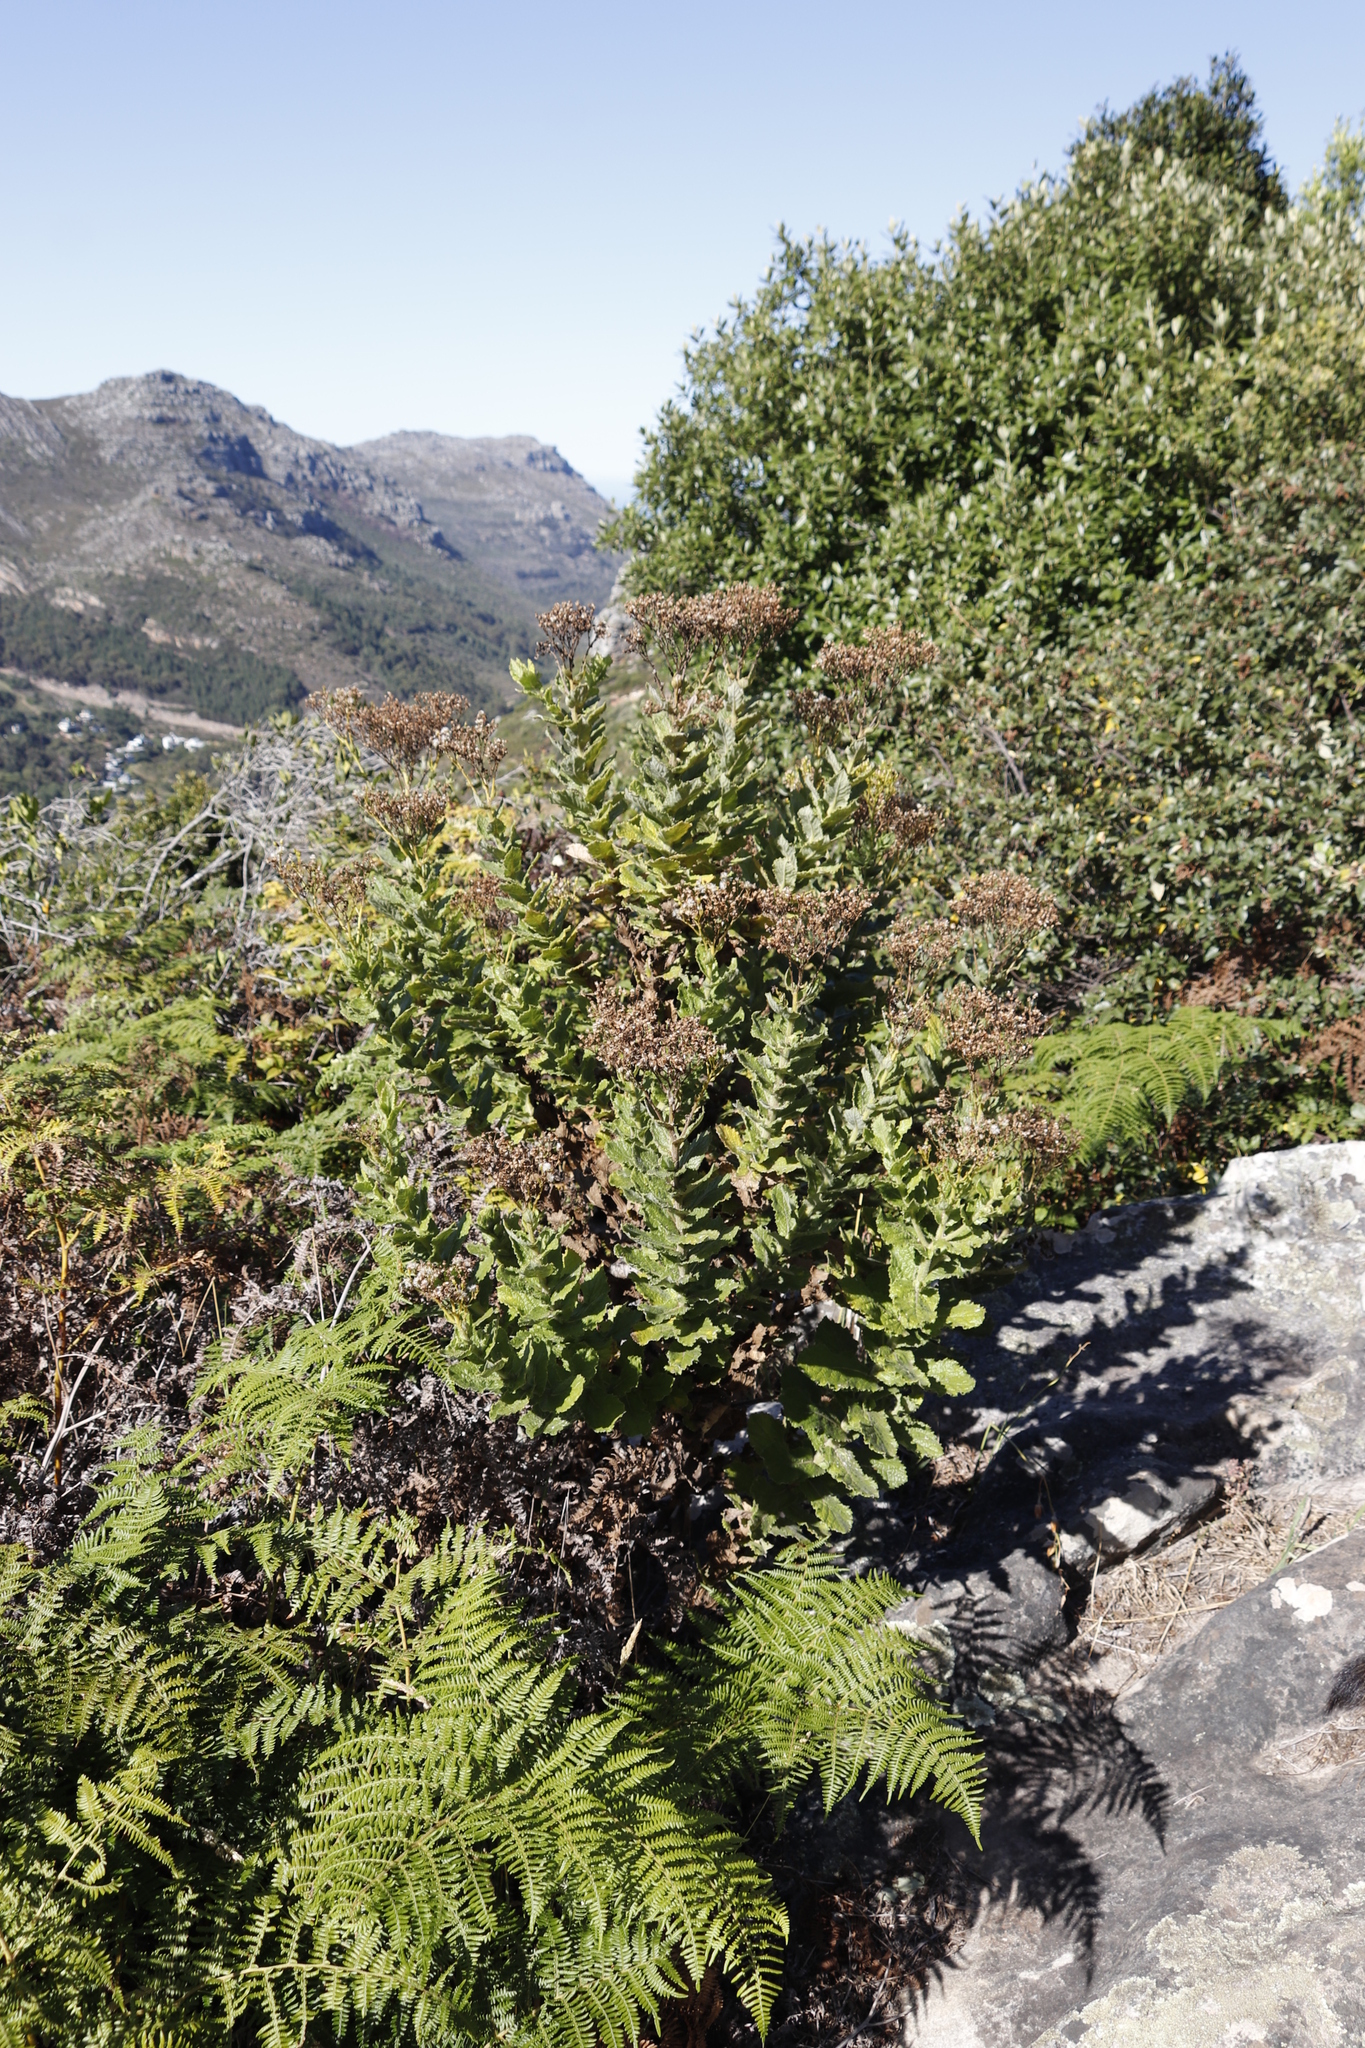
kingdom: Plantae
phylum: Tracheophyta
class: Magnoliopsida
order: Asterales
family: Asteraceae
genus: Senecio
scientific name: Senecio rigidus
